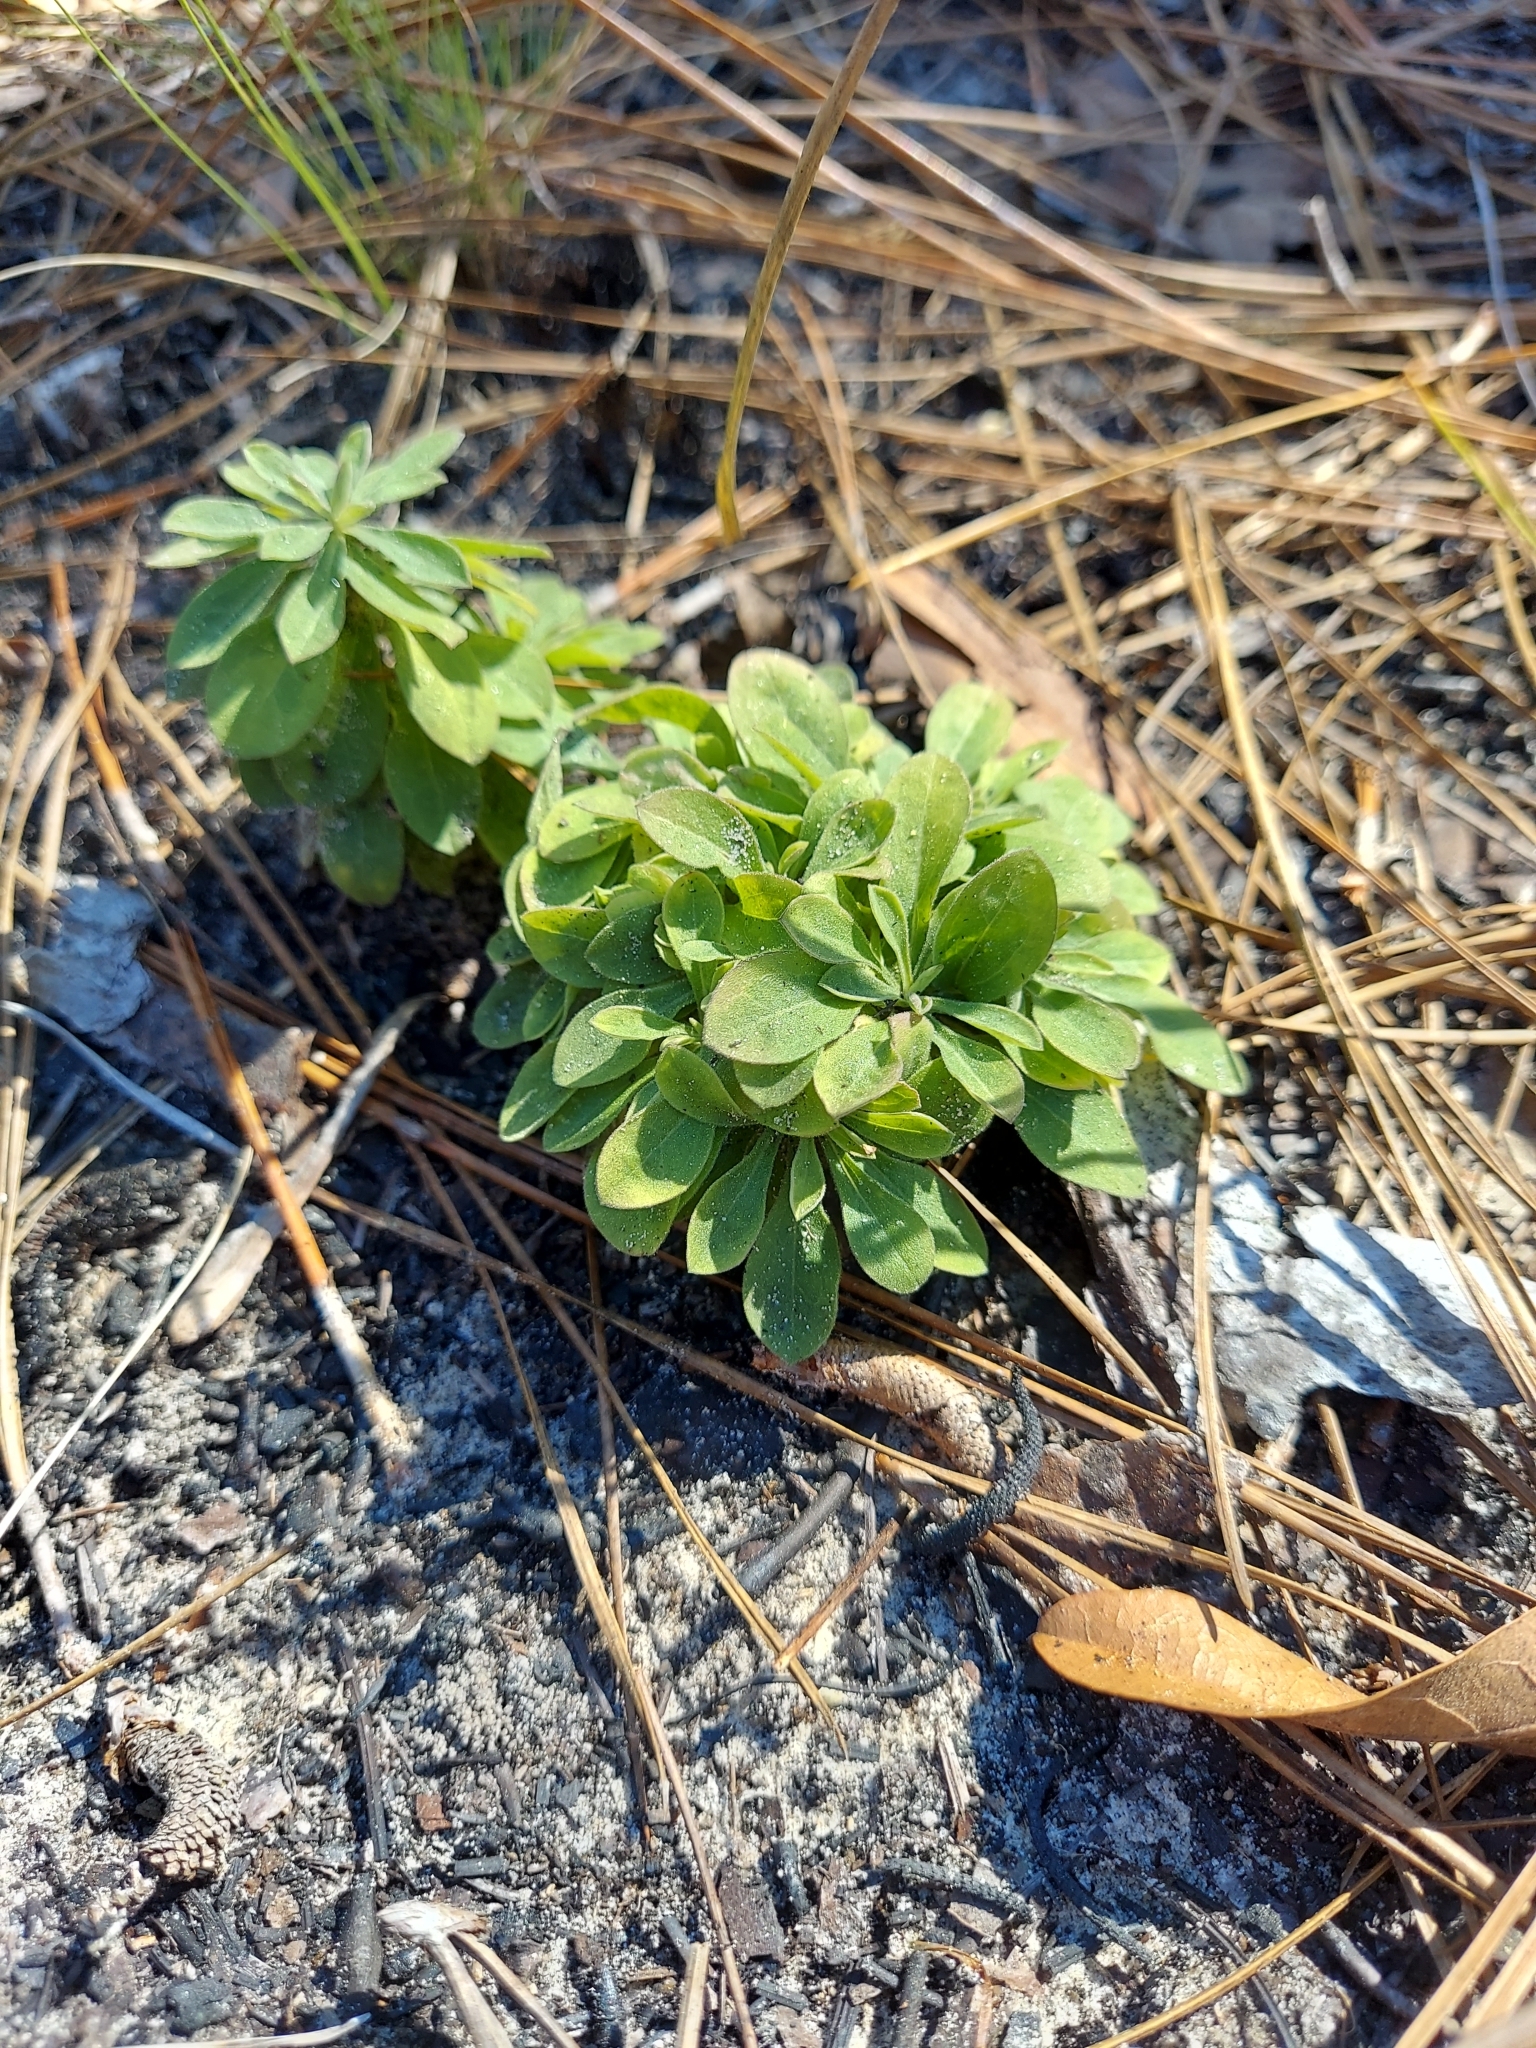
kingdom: Plantae
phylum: Tracheophyta
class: Magnoliopsida
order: Asterales
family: Asteraceae
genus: Sericocarpus
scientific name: Sericocarpus tortifolius
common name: Dixie aster
